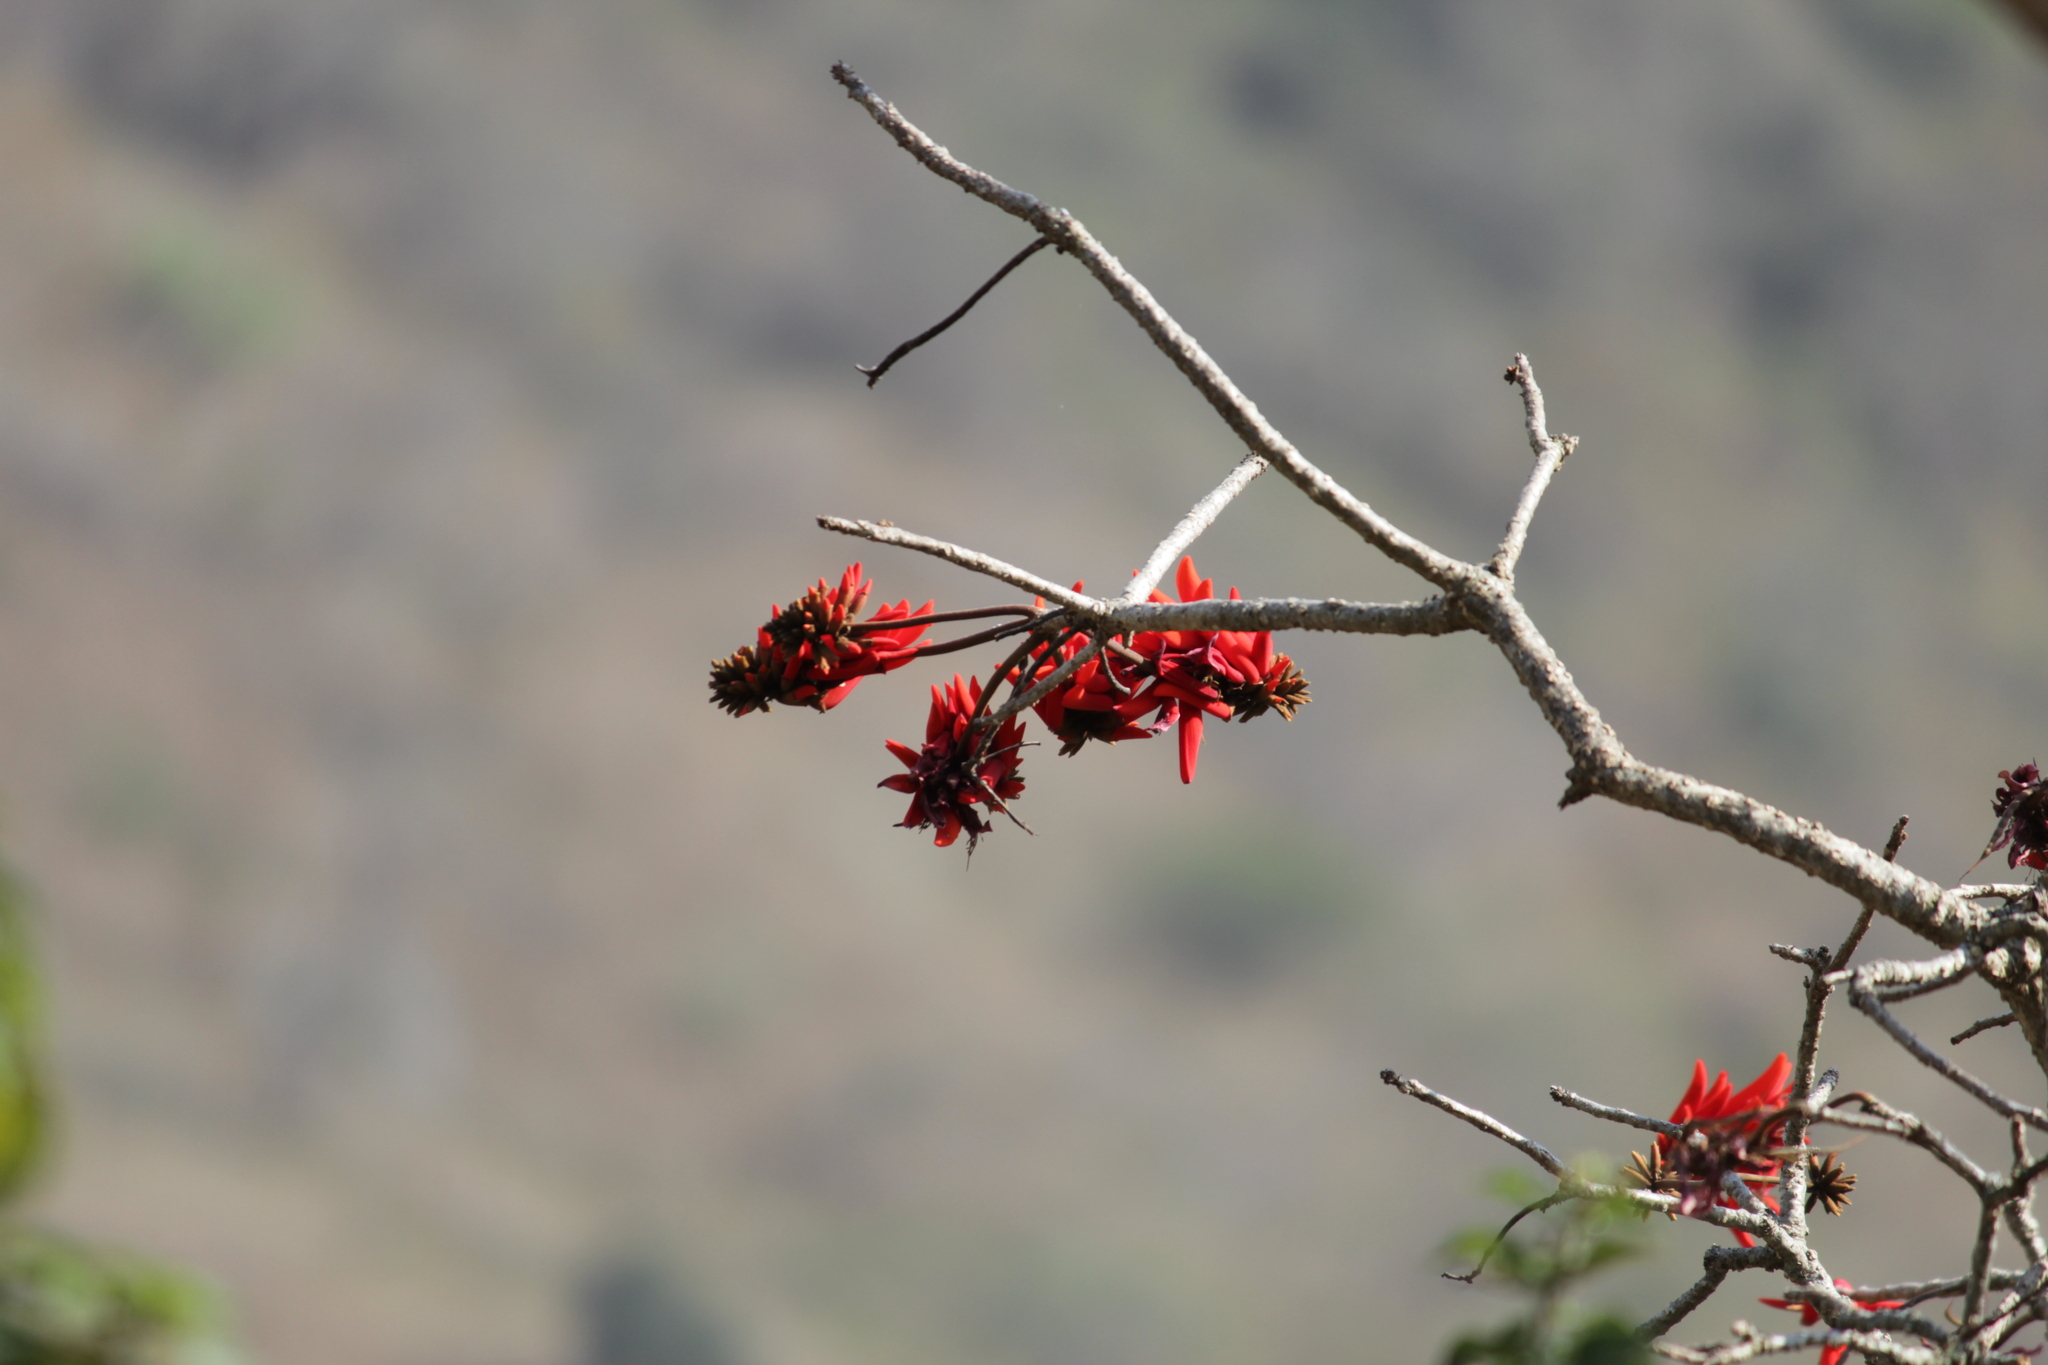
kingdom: Plantae
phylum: Tracheophyta
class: Magnoliopsida
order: Fabales
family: Fabaceae
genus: Erythrina
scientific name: Erythrina lysistemon
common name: Common coral tree
